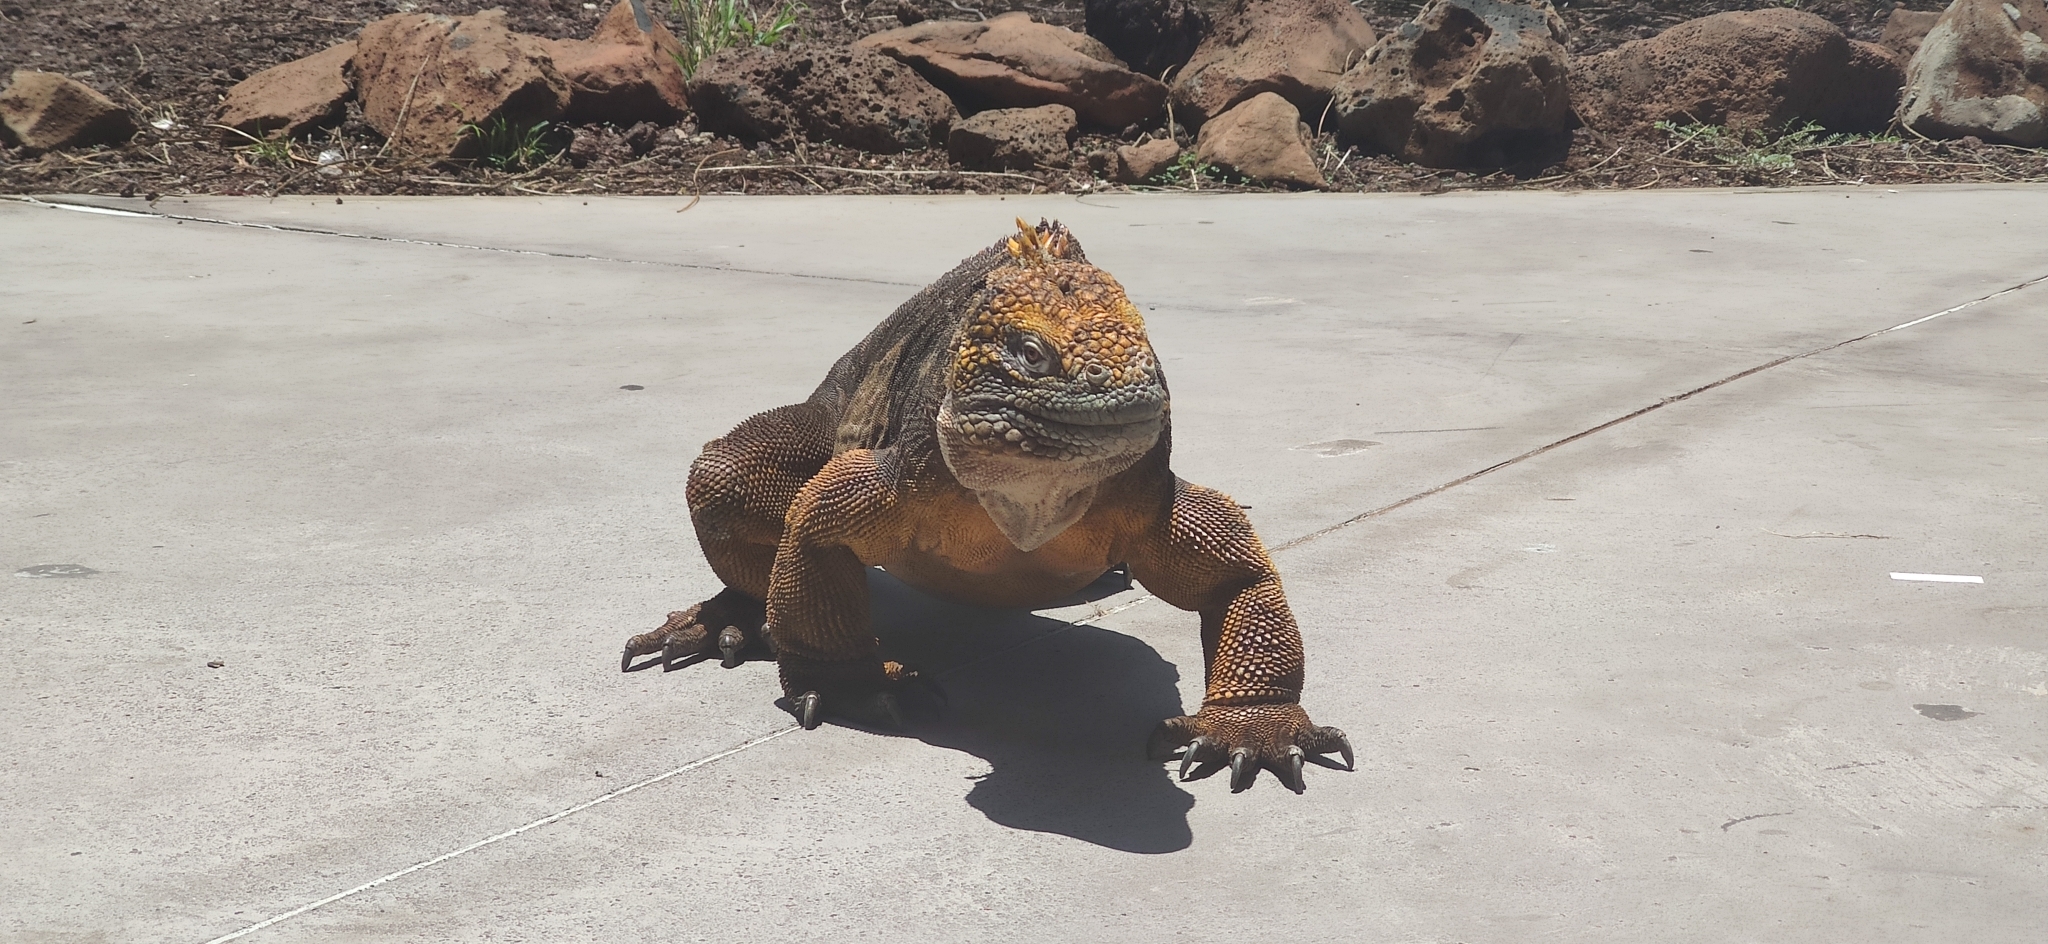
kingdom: Animalia
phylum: Chordata
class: Squamata
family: Iguanidae
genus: Conolophus
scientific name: Conolophus subcristatus
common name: Galapagos land iguana
